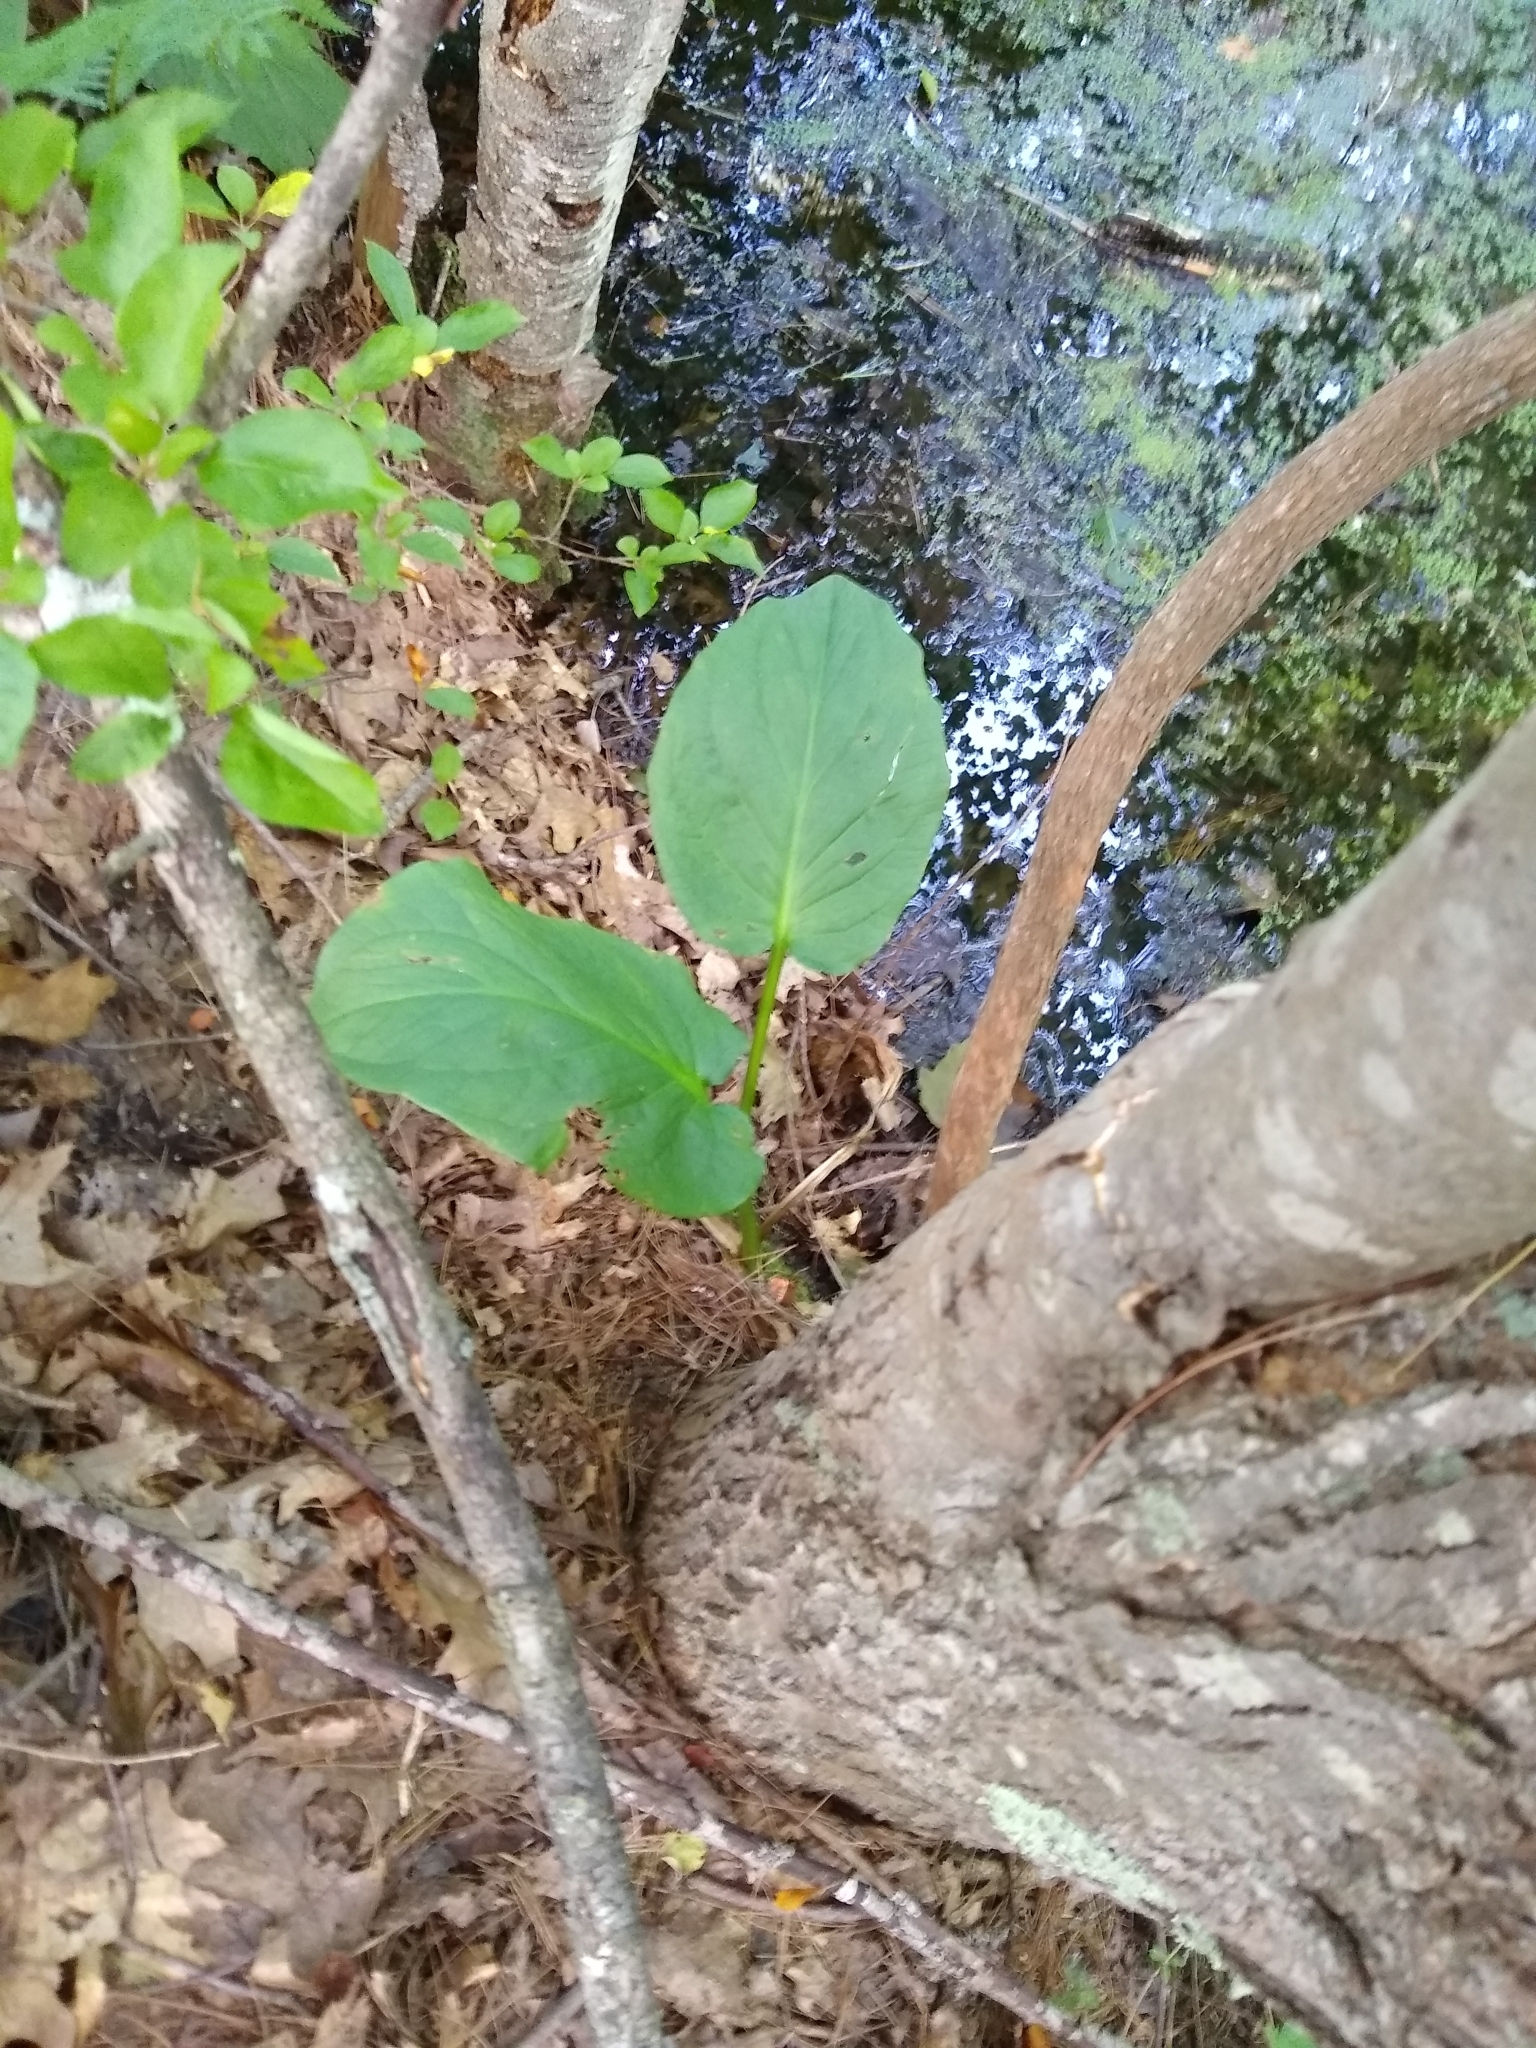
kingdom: Plantae
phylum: Tracheophyta
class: Liliopsida
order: Alismatales
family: Araceae
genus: Symplocarpus
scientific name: Symplocarpus foetidus
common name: Eastern skunk cabbage
